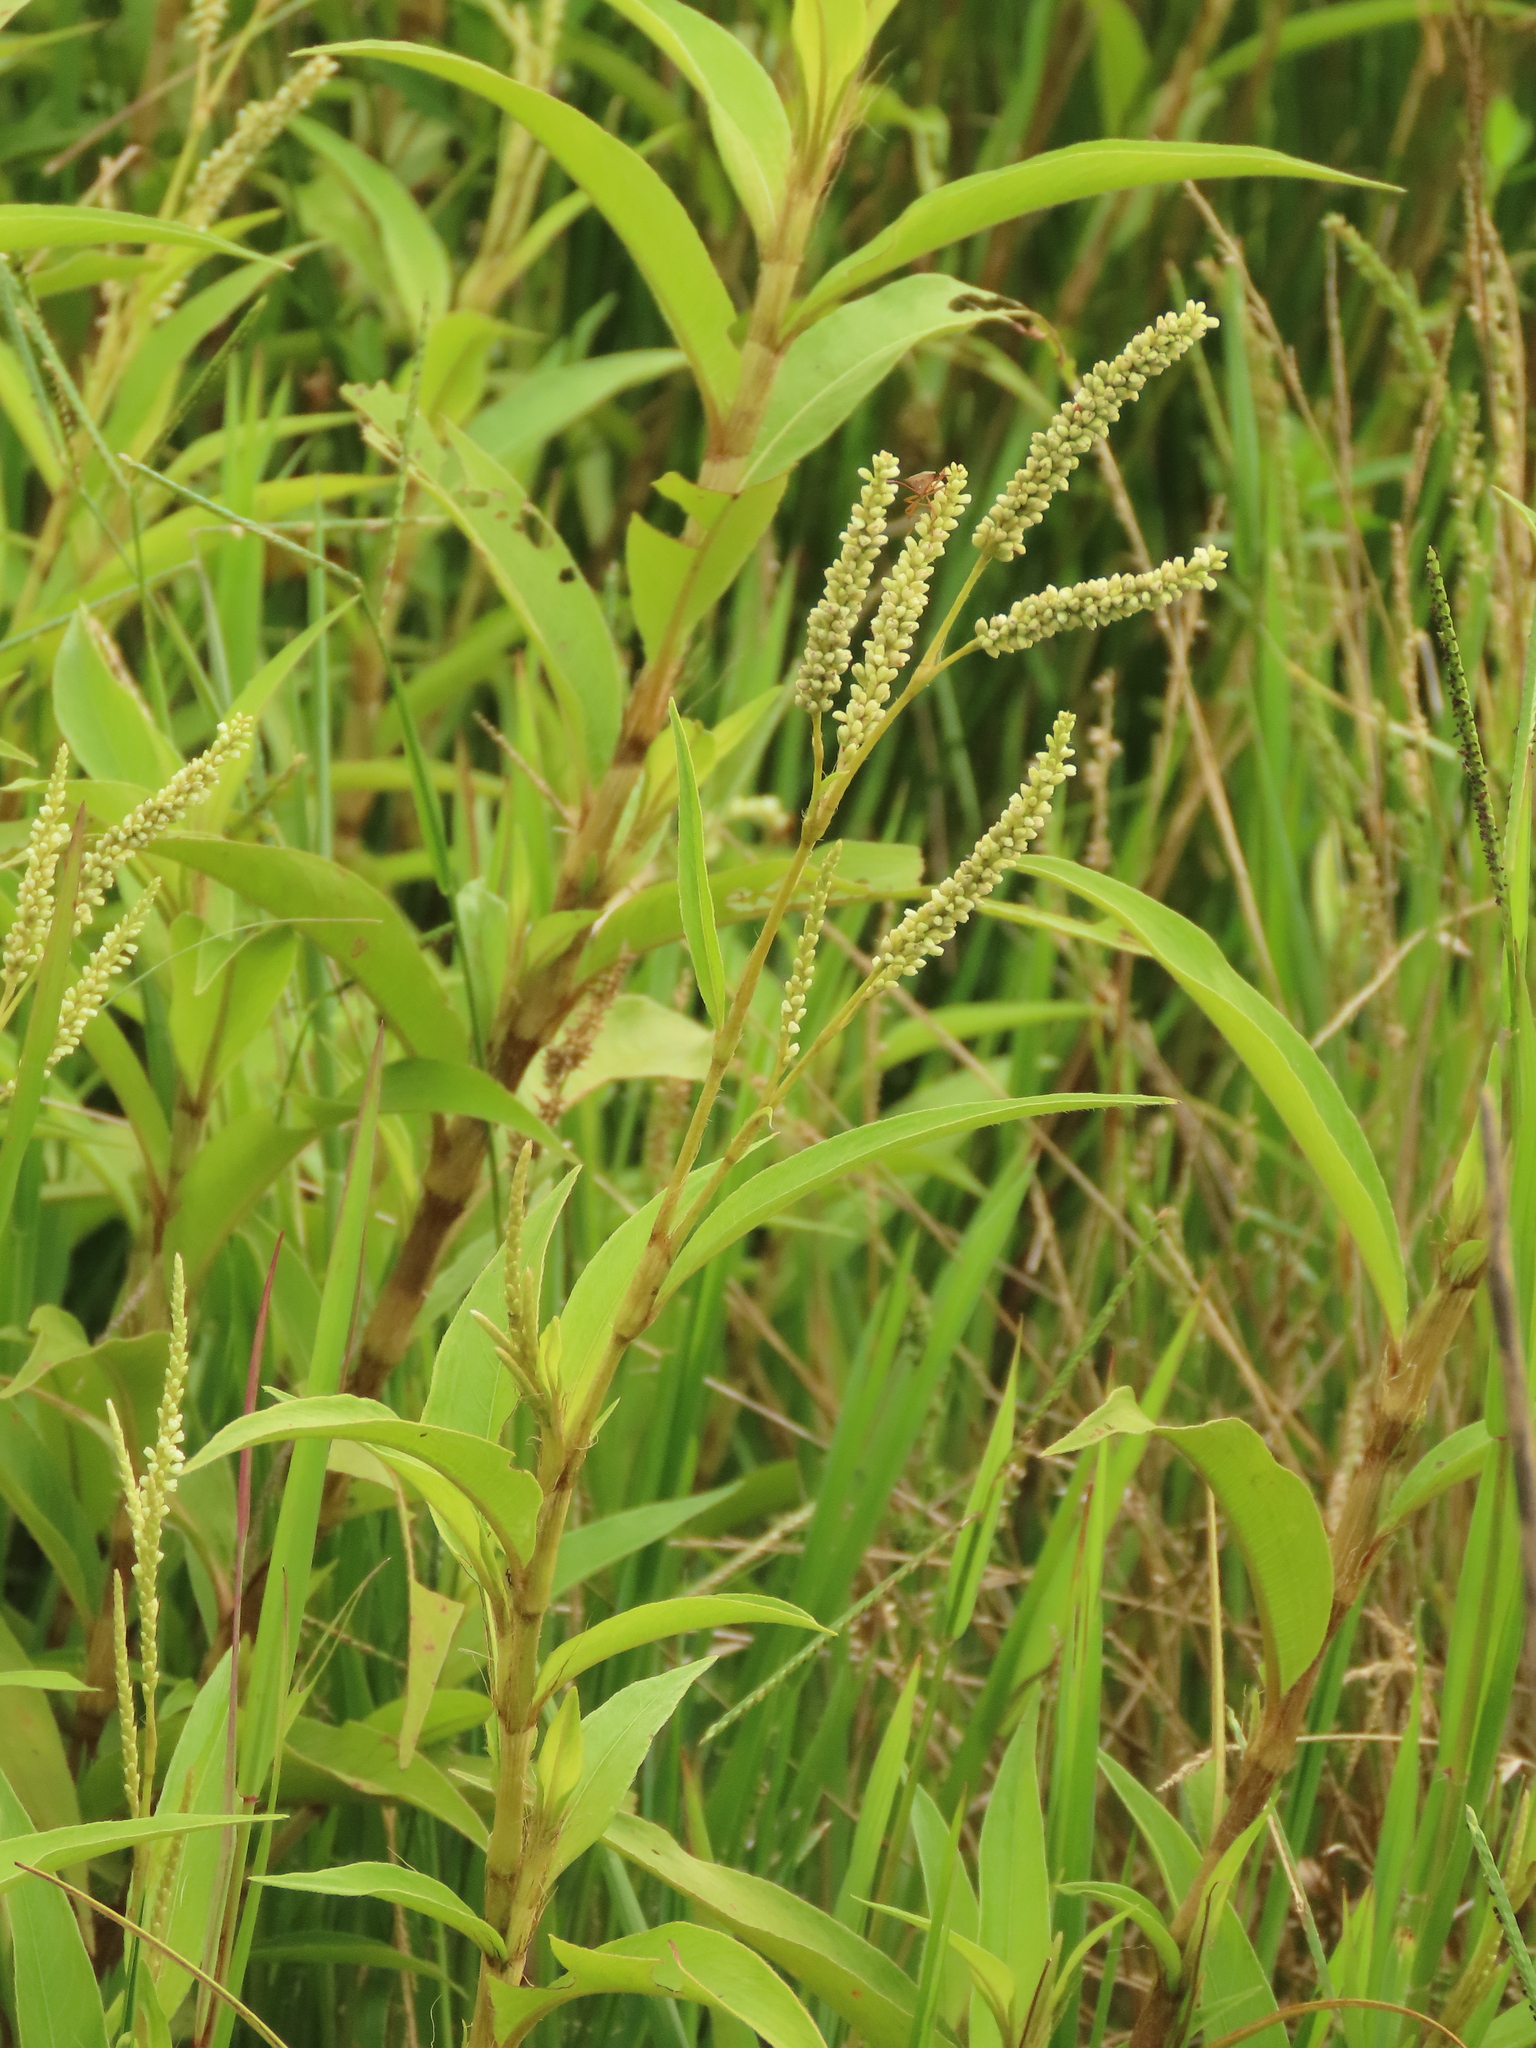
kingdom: Plantae
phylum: Tracheophyta
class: Magnoliopsida
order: Caryophyllales
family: Polygonaceae
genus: Persicaria
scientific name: Persicaria barbata
